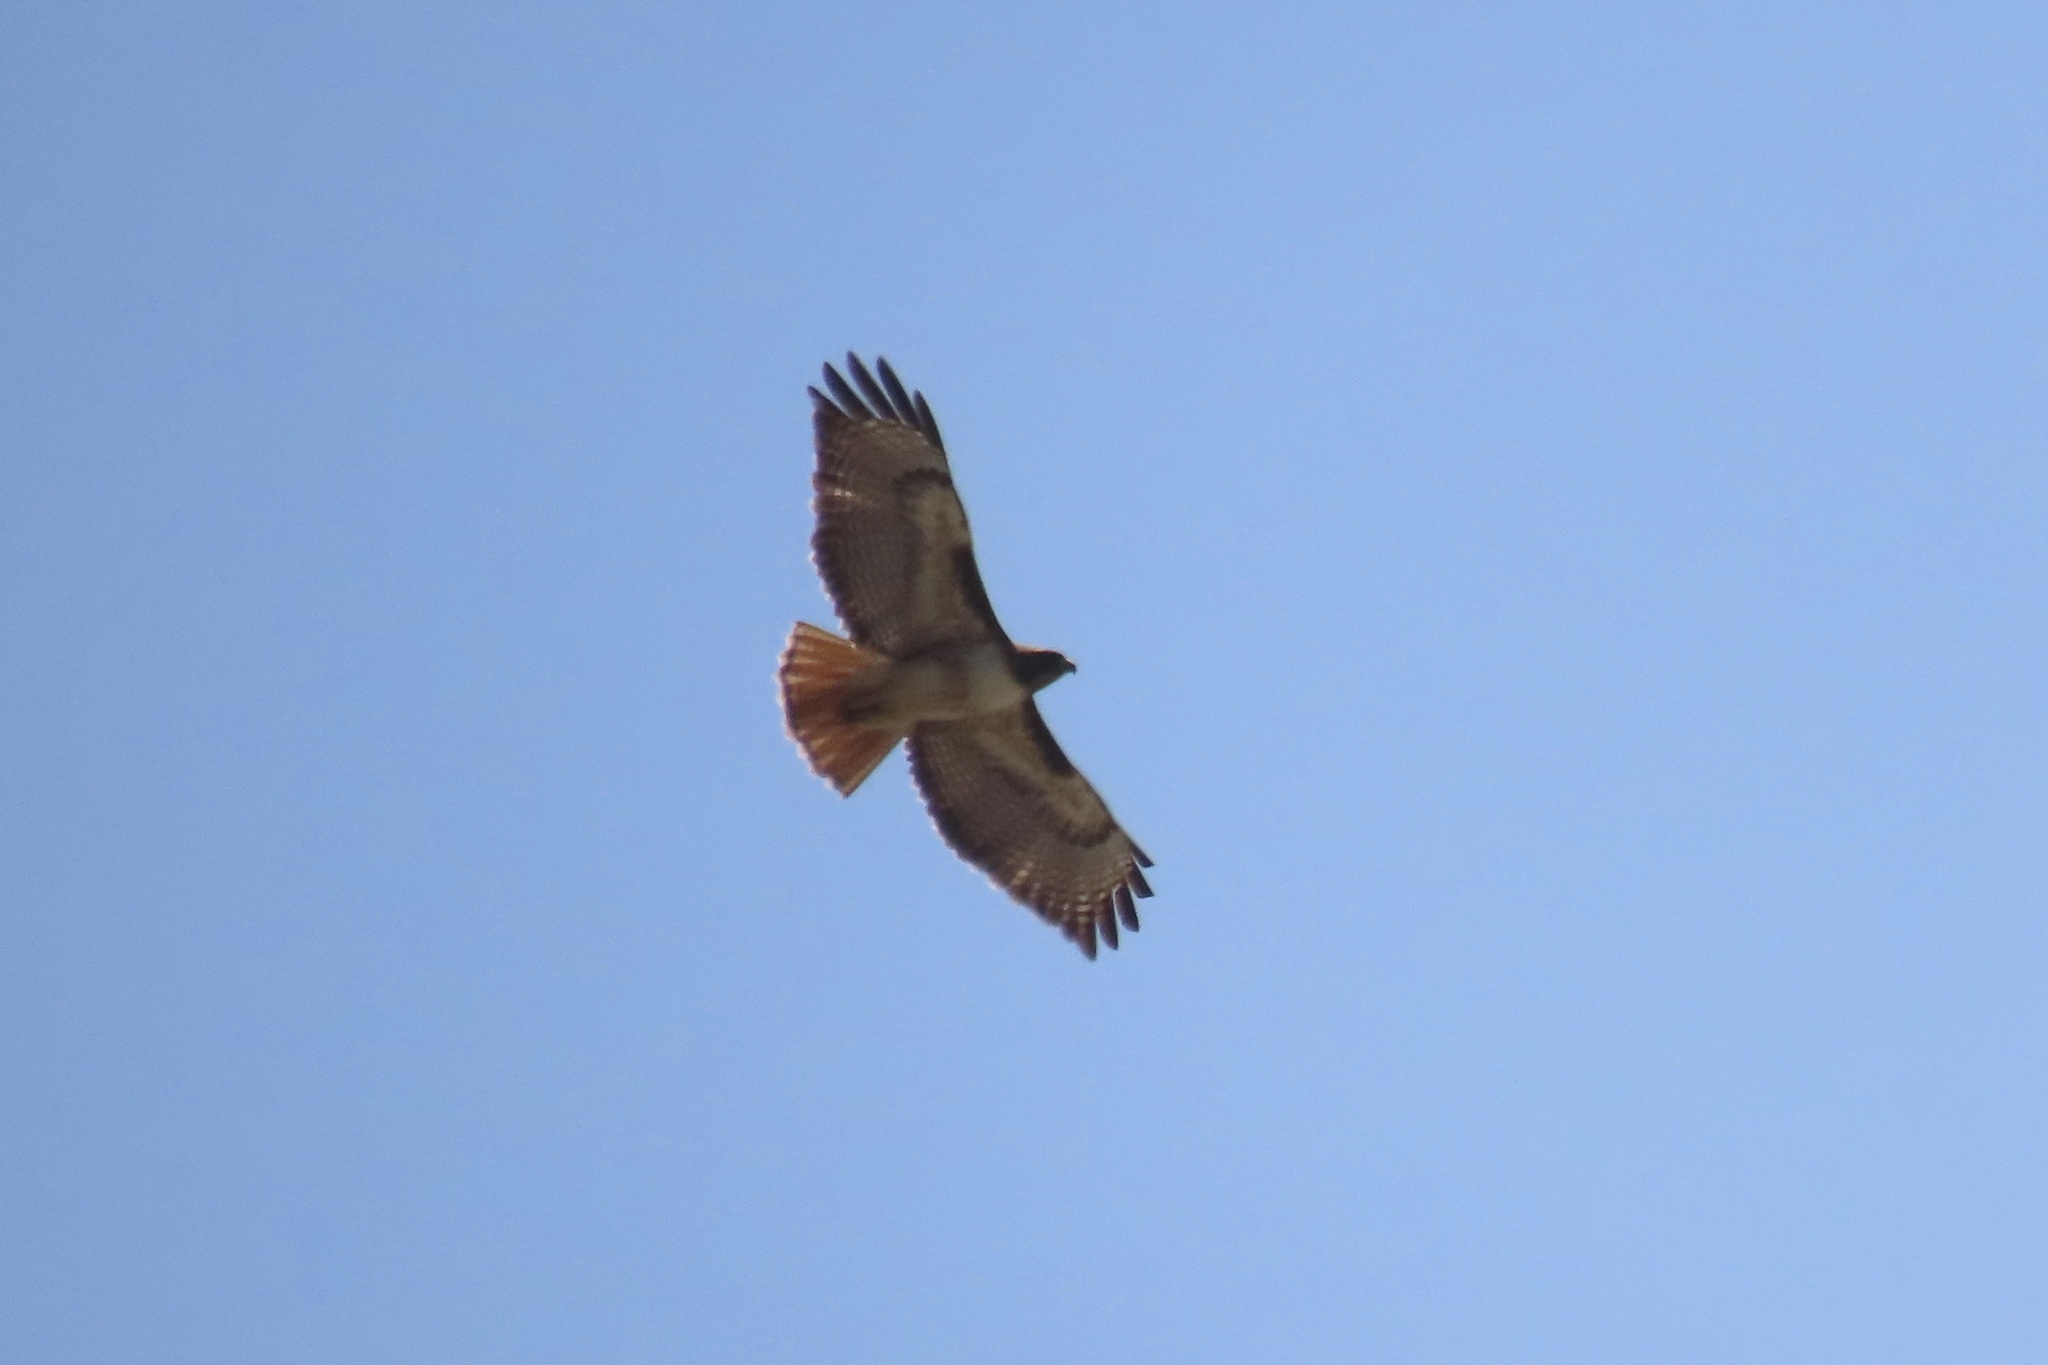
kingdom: Animalia
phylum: Chordata
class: Aves
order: Accipitriformes
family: Accipitridae
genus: Buteo
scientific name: Buteo jamaicensis
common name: Red-tailed hawk
